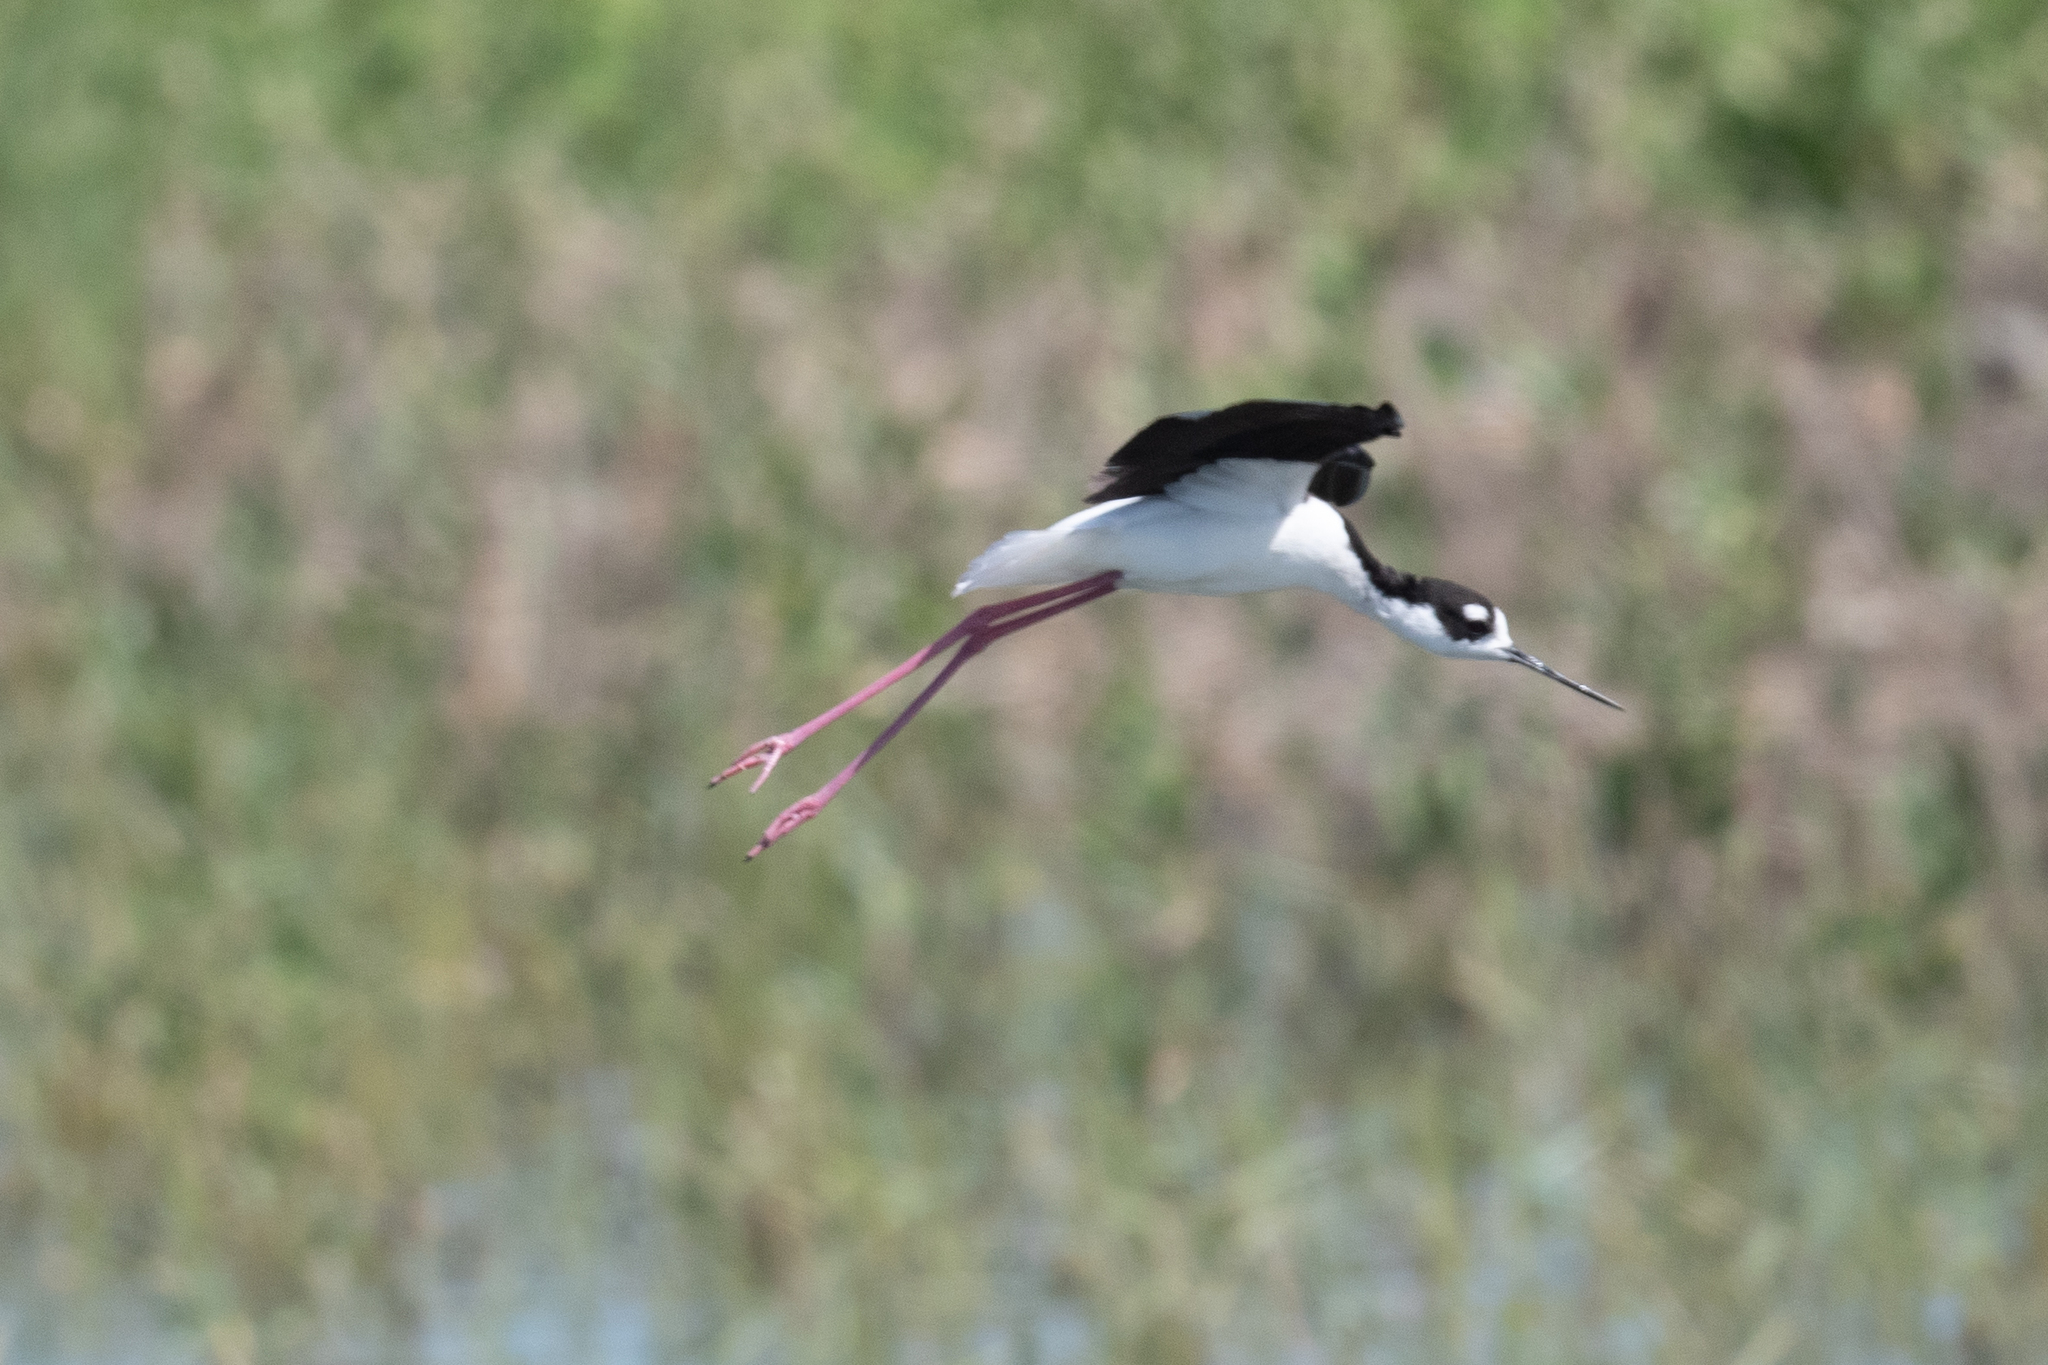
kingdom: Animalia
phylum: Chordata
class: Aves
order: Charadriiformes
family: Recurvirostridae
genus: Himantopus
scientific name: Himantopus mexicanus
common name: Black-necked stilt
